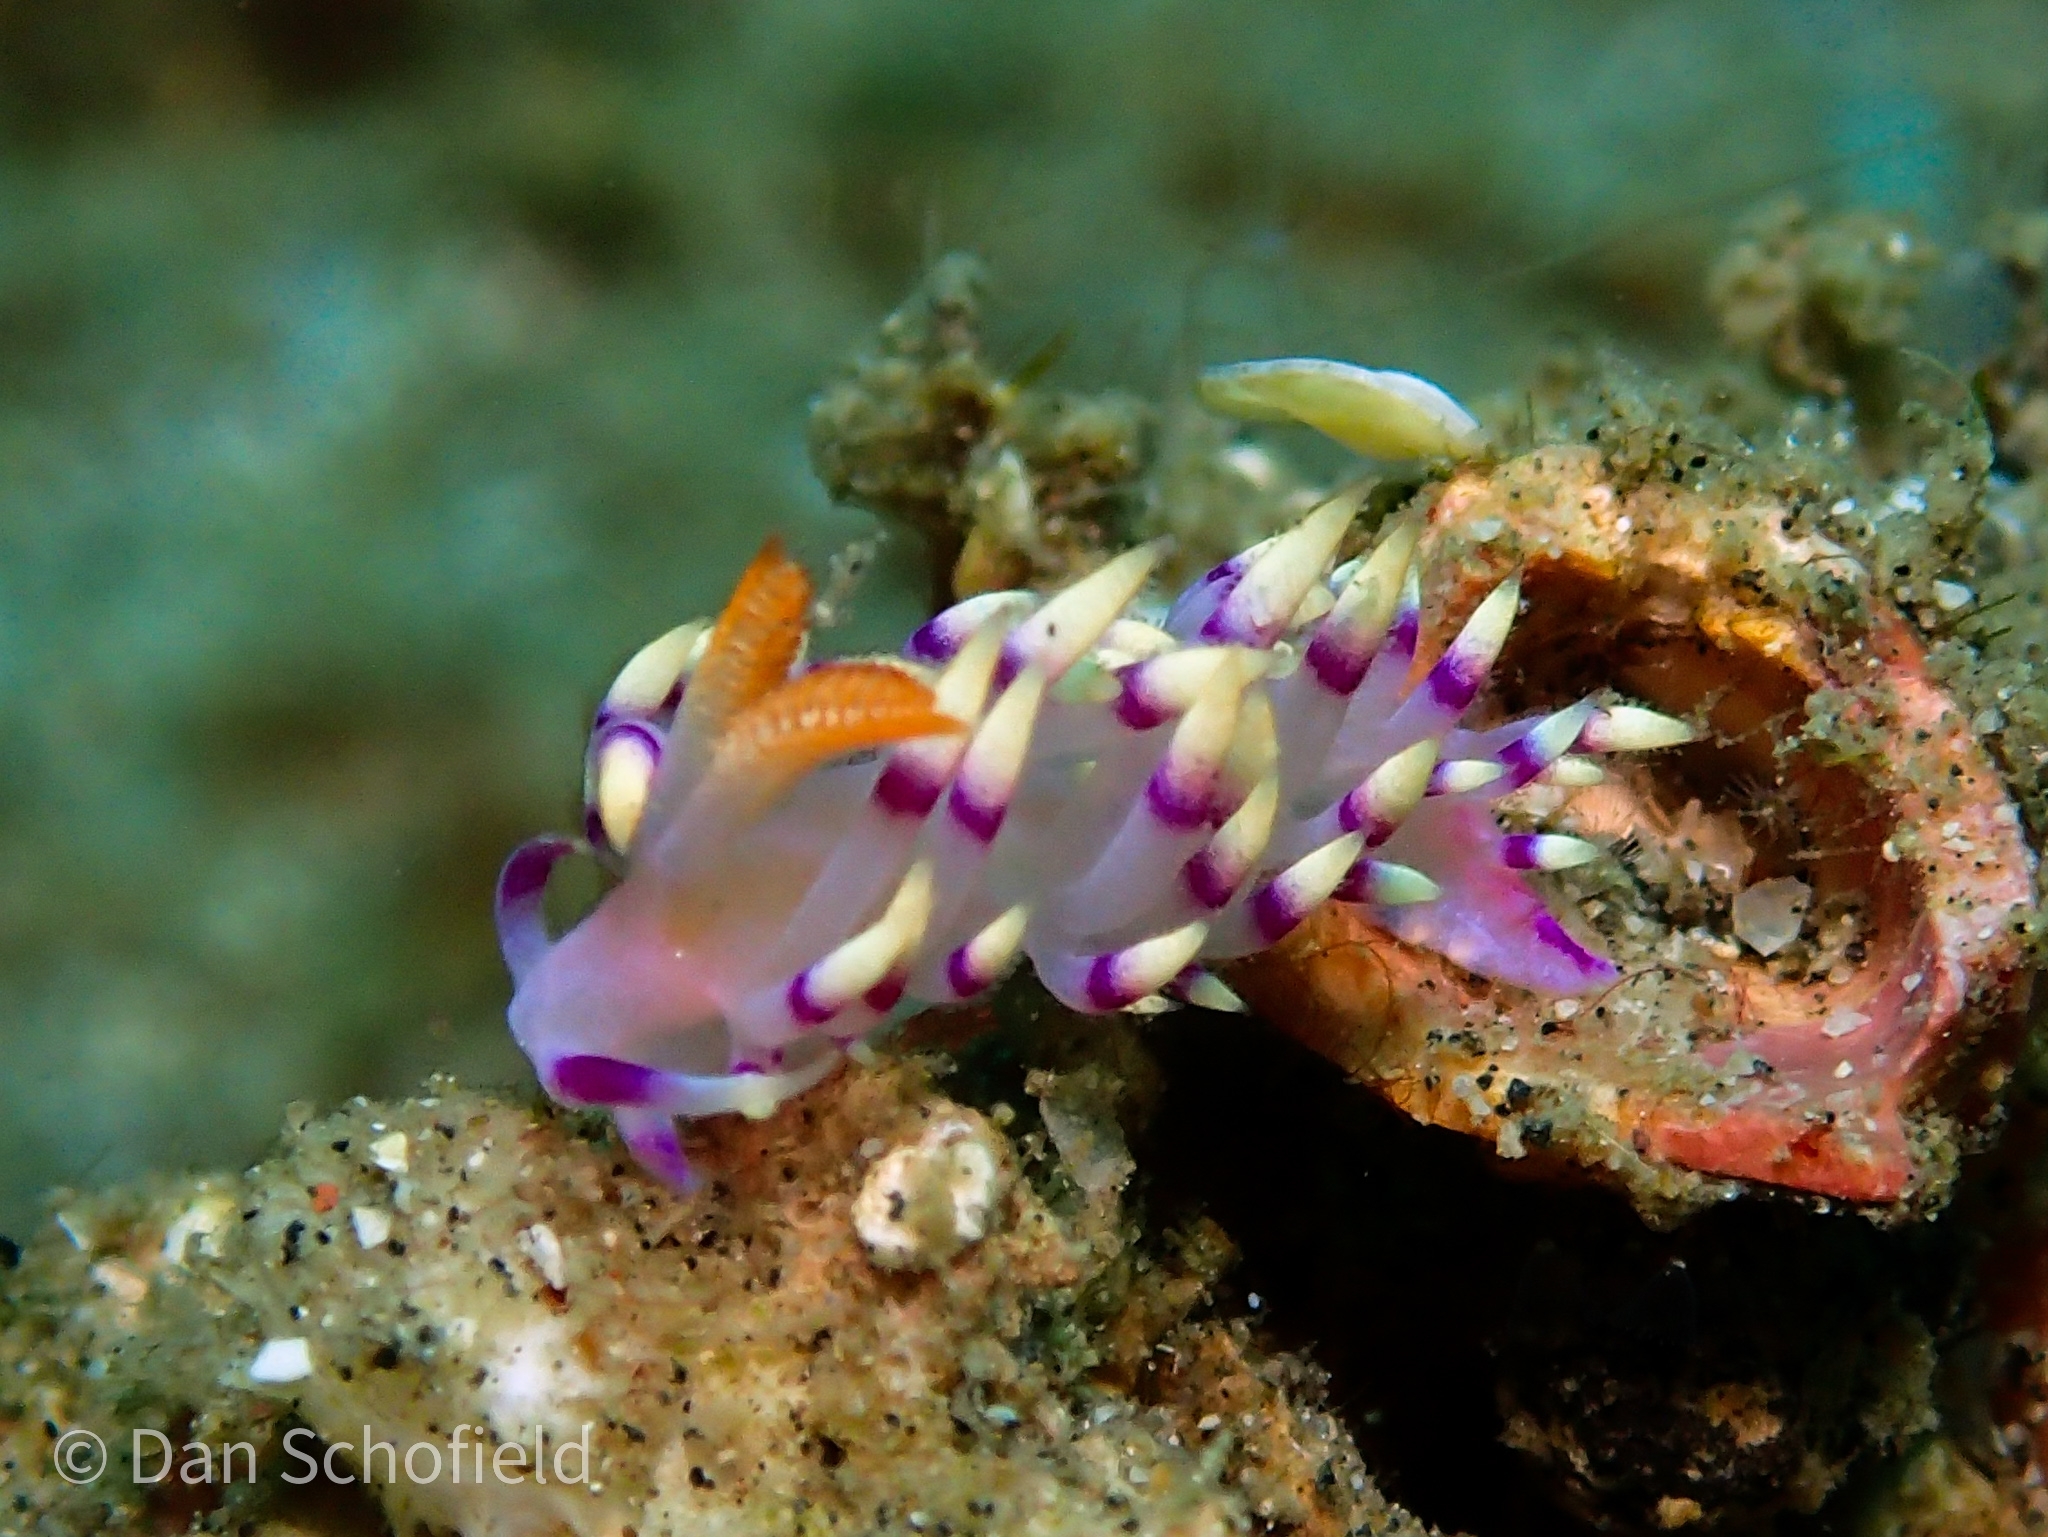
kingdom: Animalia
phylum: Mollusca
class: Gastropoda
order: Nudibranchia
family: Flabellinidae
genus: Coryphellina
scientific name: Coryphellina exoptata
